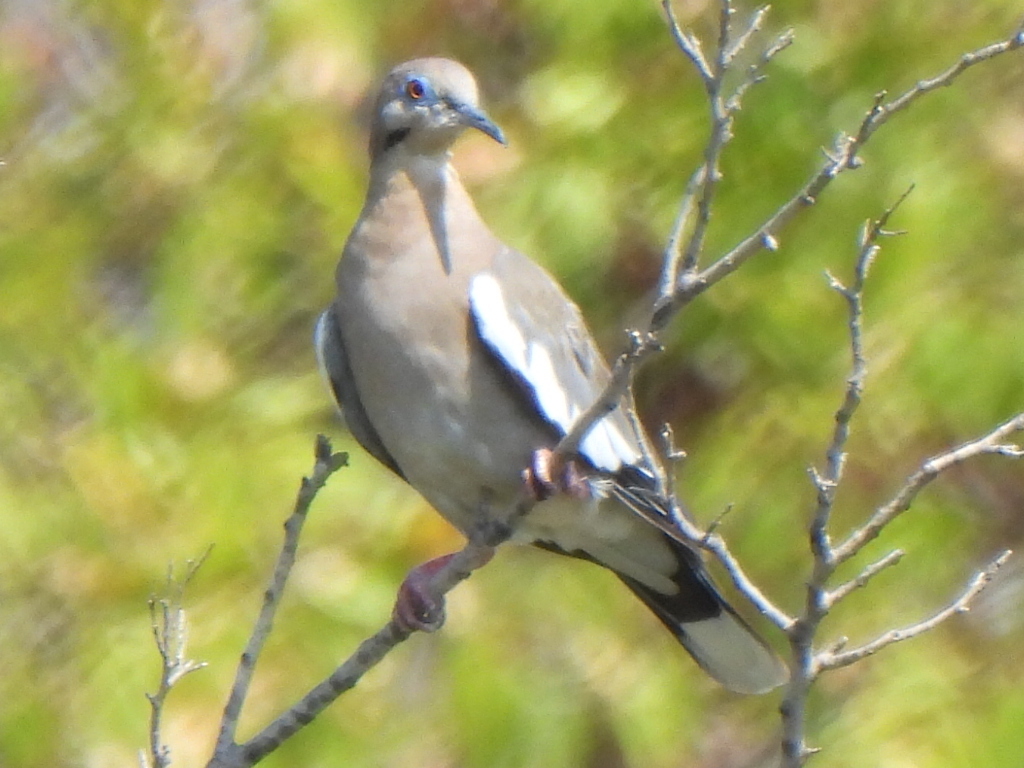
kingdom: Animalia
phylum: Chordata
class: Aves
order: Columbiformes
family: Columbidae
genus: Zenaida
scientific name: Zenaida asiatica
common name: White-winged dove
